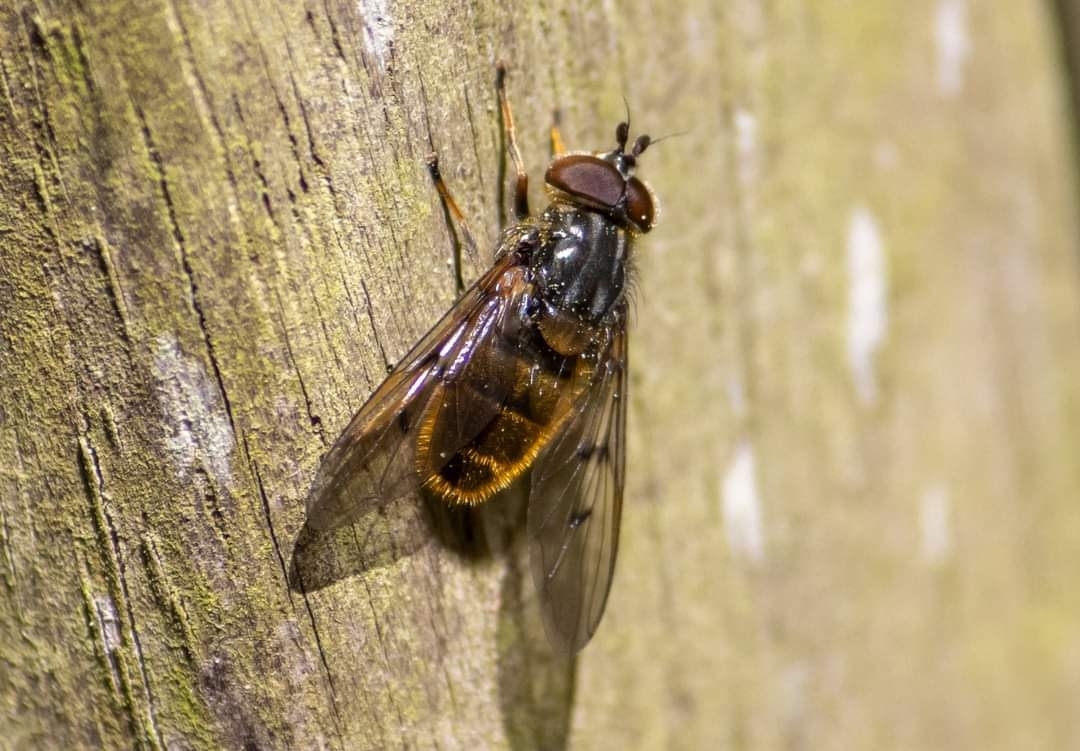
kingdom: Animalia
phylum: Arthropoda
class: Insecta
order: Diptera
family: Syrphidae
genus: Ferdinandea
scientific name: Ferdinandea cuprea
